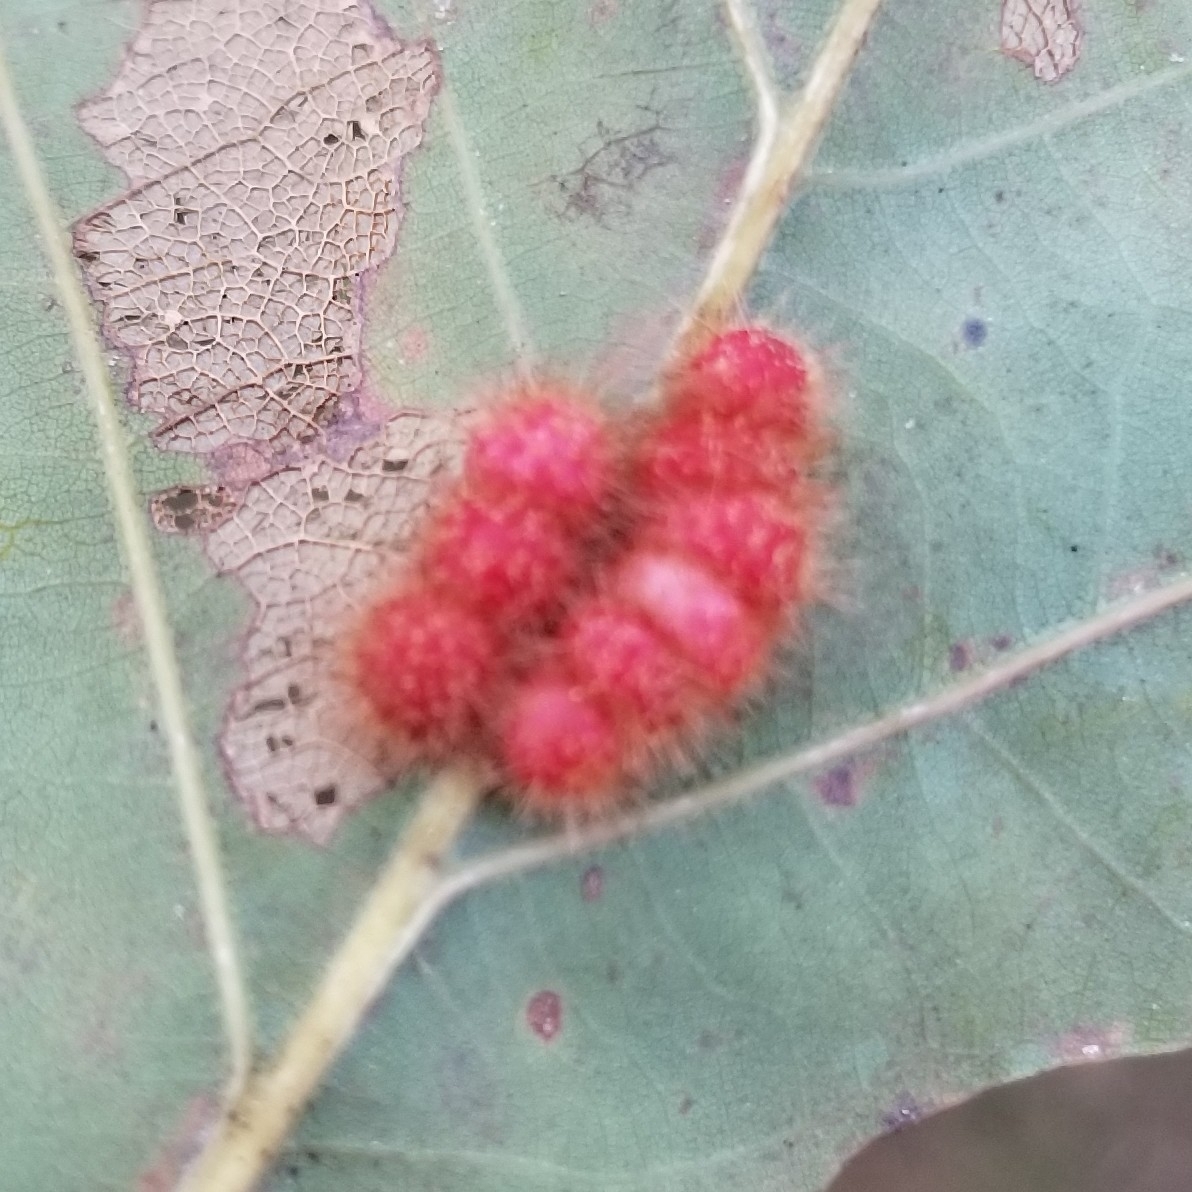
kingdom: Animalia
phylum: Arthropoda
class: Insecta
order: Hymenoptera
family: Cynipidae
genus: Andricus
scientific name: Andricus
